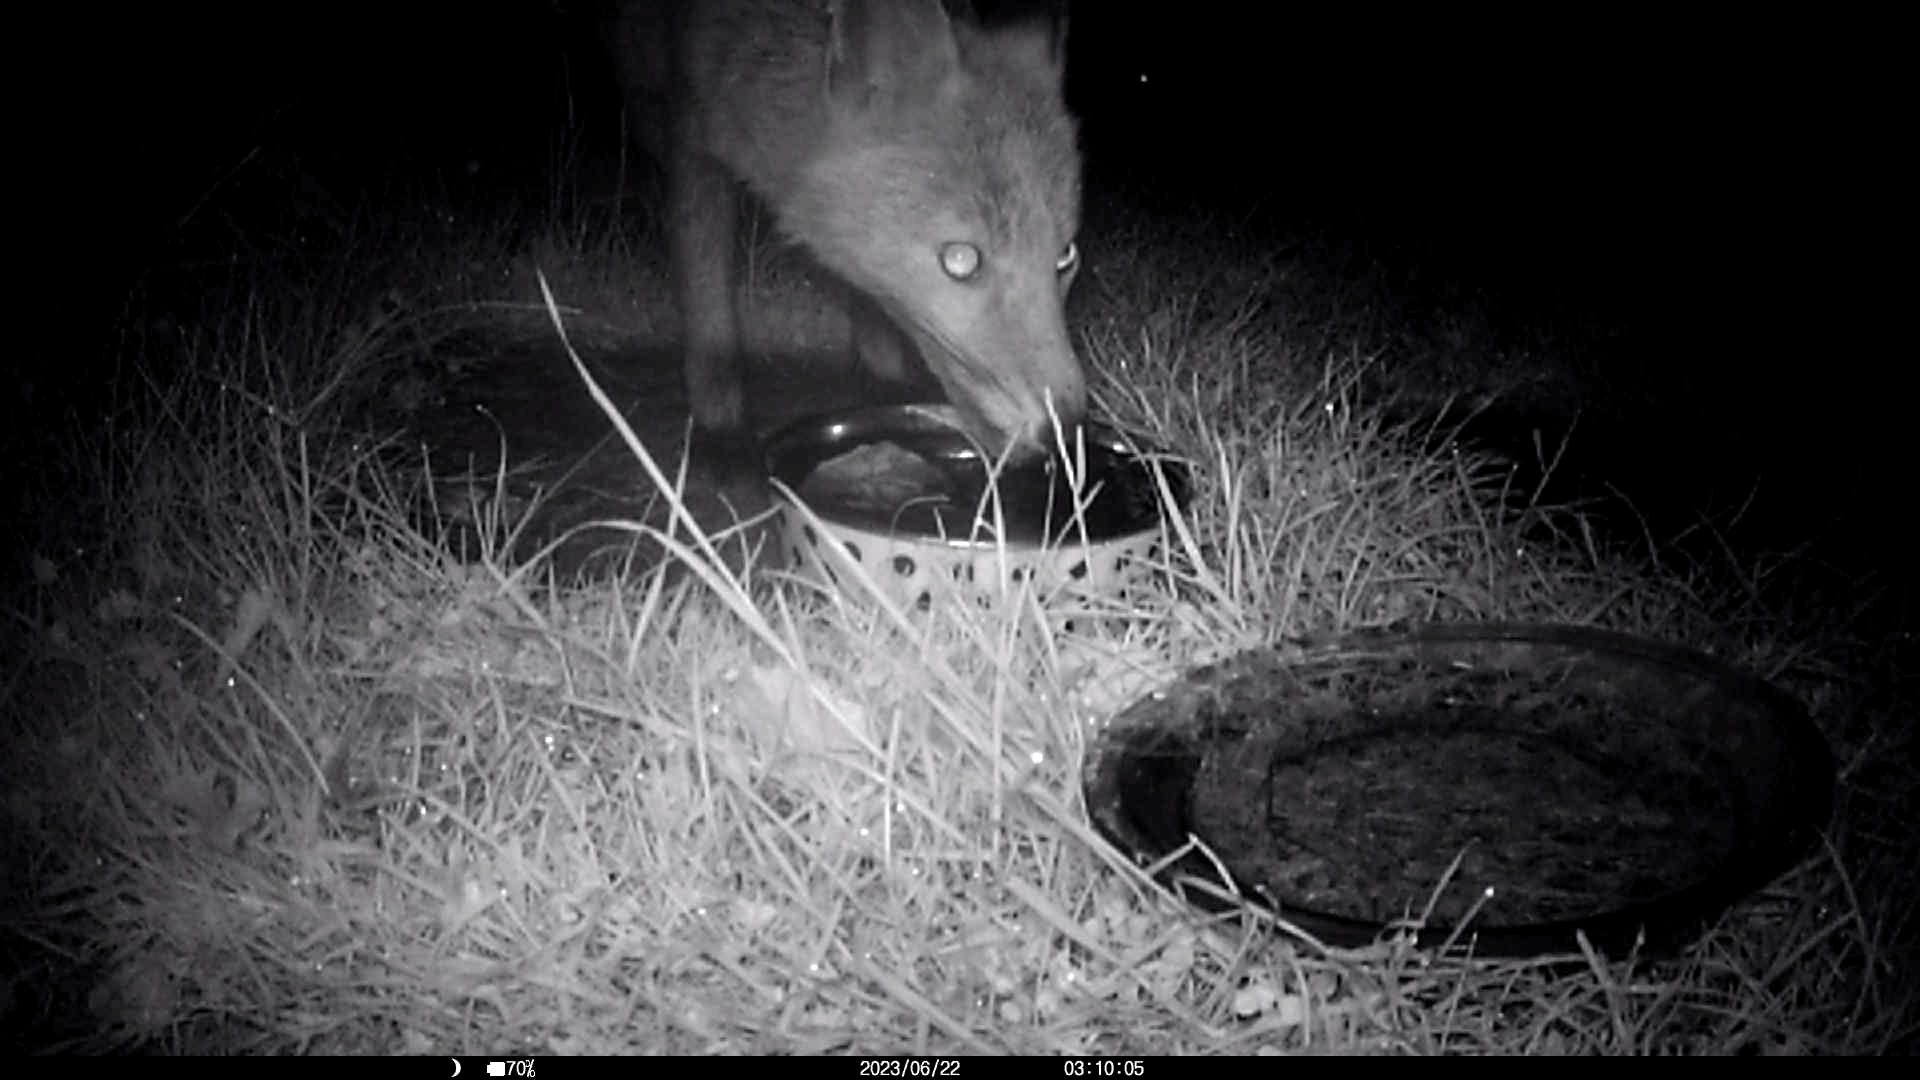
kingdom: Animalia
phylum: Chordata
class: Mammalia
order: Carnivora
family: Canidae
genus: Vulpes
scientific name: Vulpes vulpes
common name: Red fox
